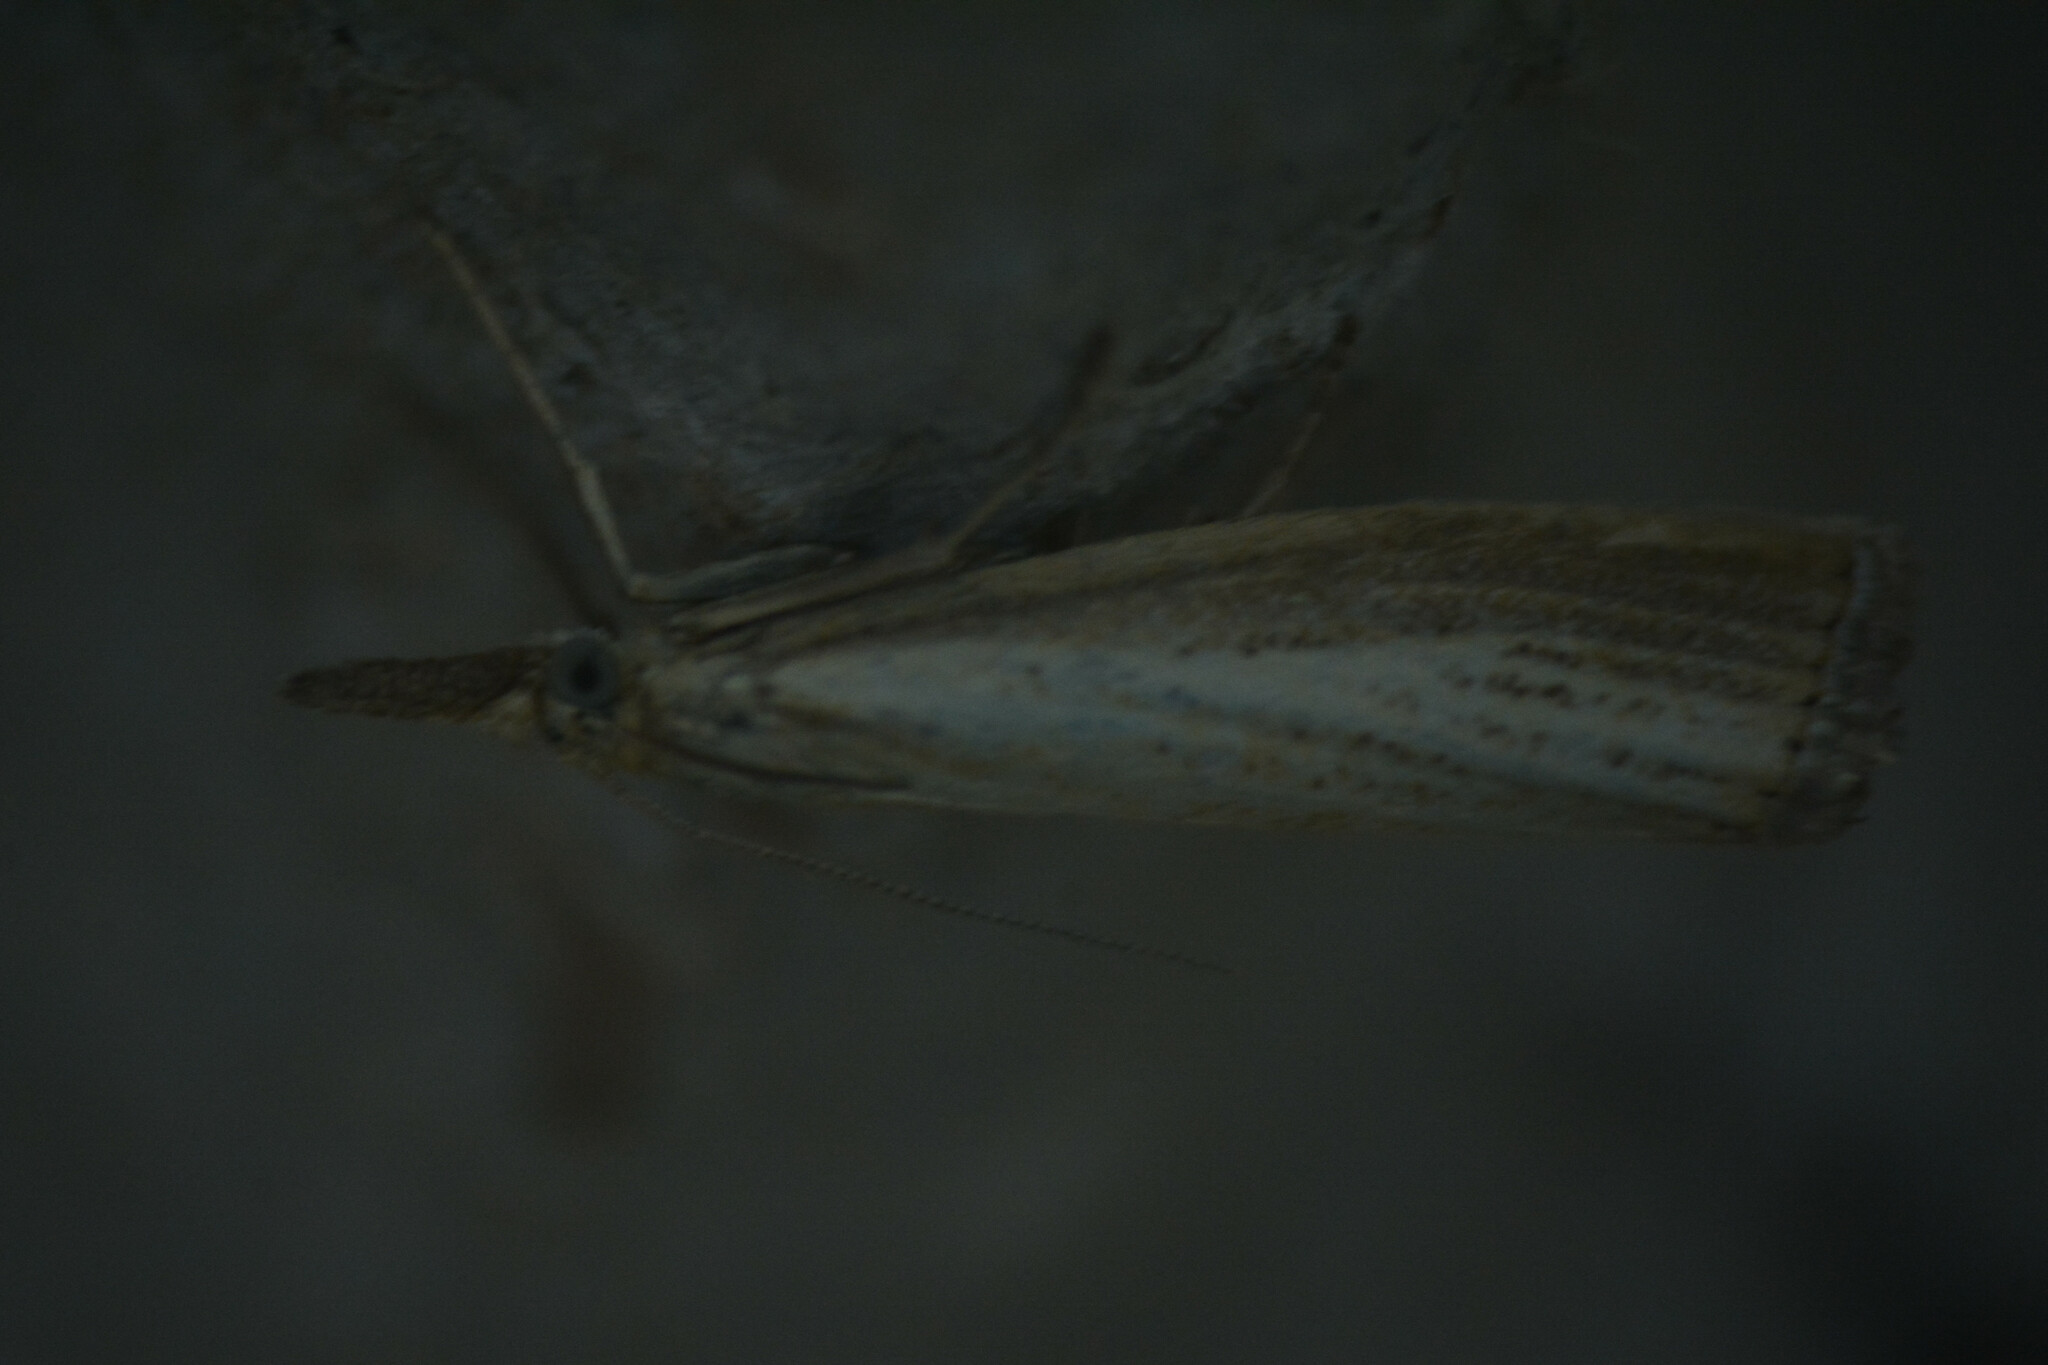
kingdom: Animalia
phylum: Arthropoda
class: Insecta
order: Lepidoptera
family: Crambidae
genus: Agriphila
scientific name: Agriphila straminella
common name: Straw grass-veneer
